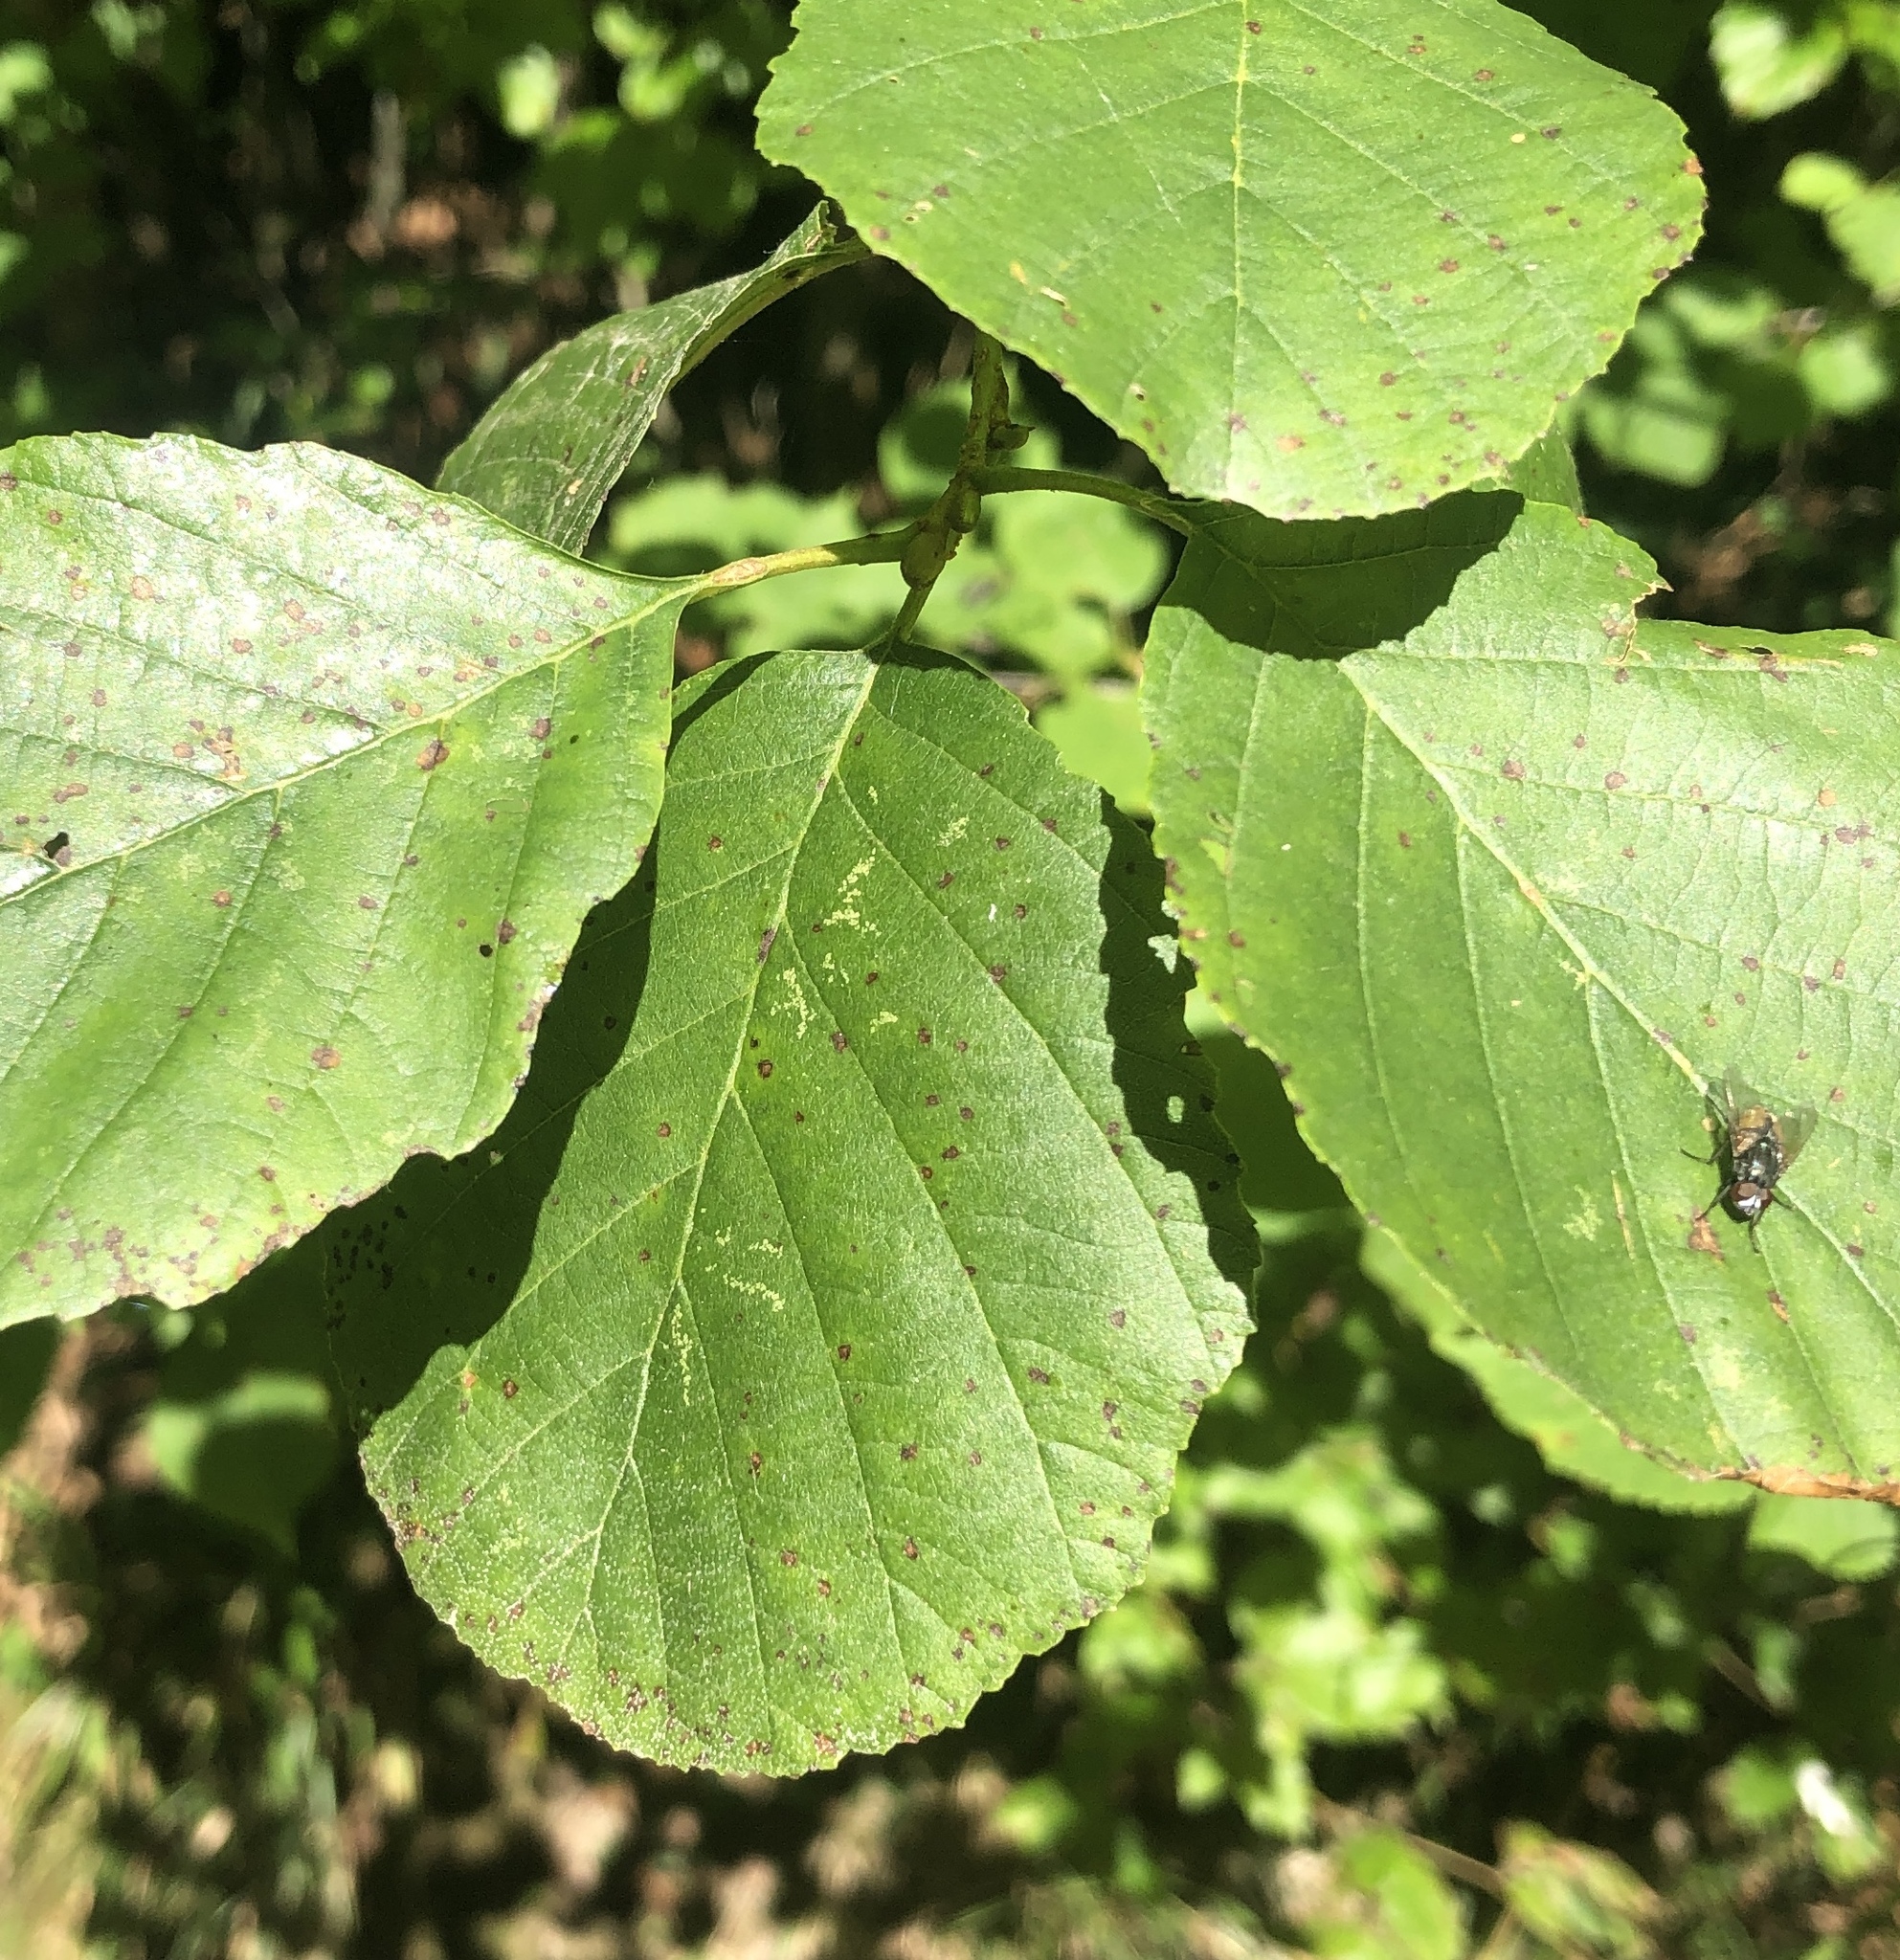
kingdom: Plantae
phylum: Tracheophyta
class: Magnoliopsida
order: Fagales
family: Betulaceae
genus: Alnus
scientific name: Alnus glutinosa
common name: Black alder
